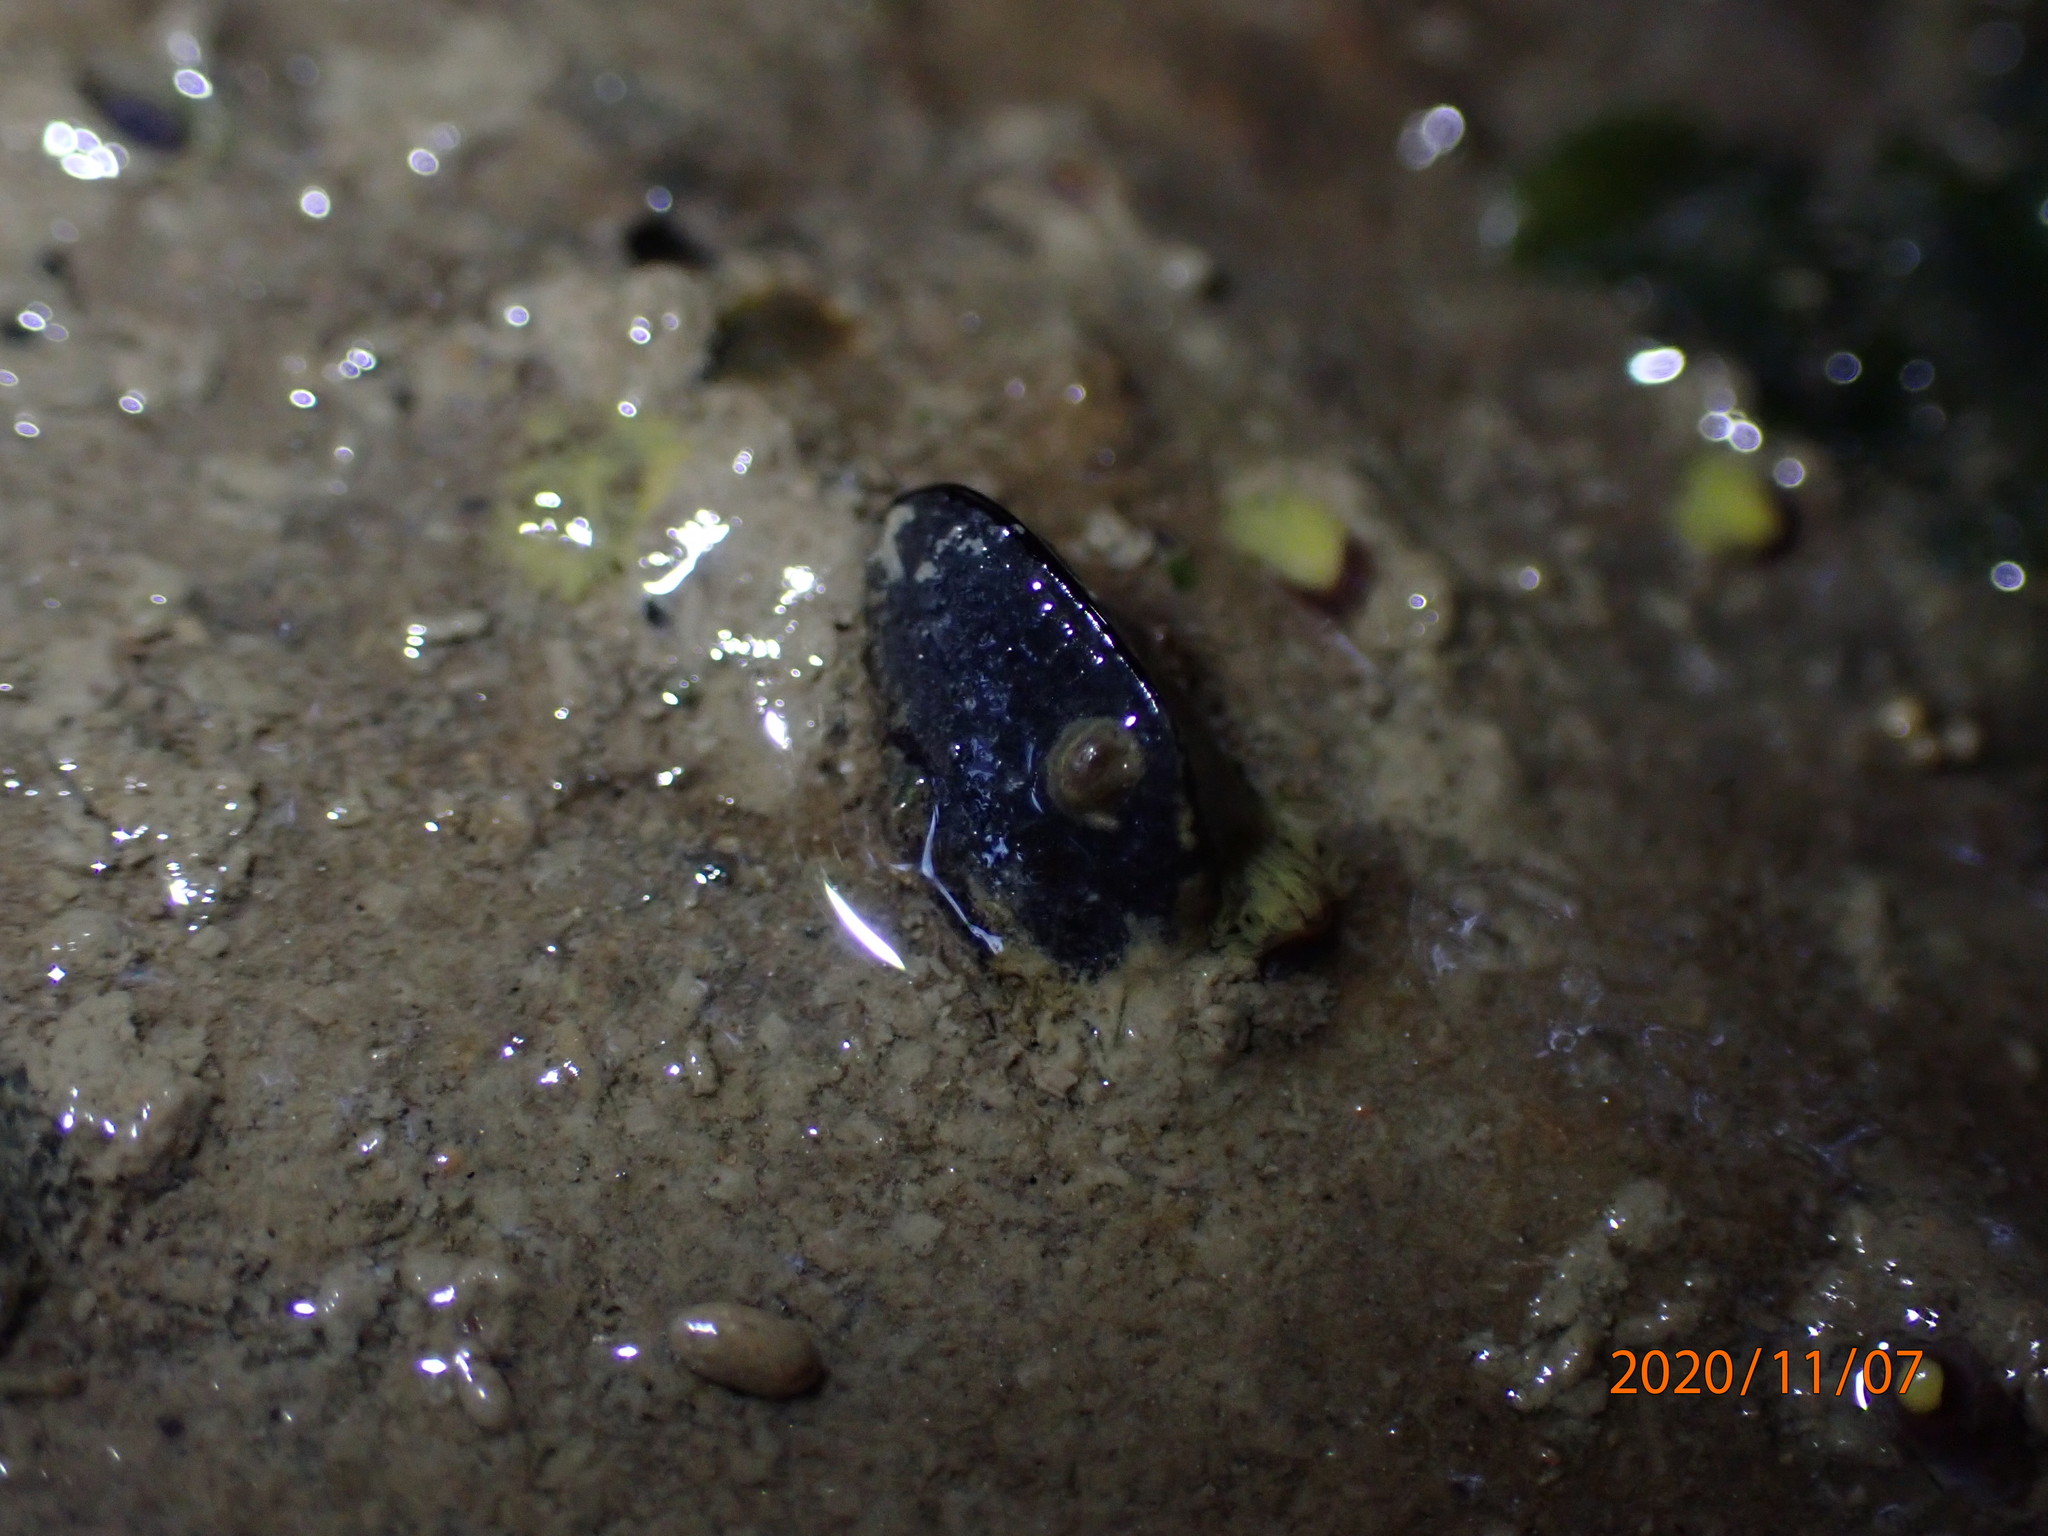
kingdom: Animalia
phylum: Mollusca
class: Bivalvia
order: Mytilida
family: Mytilidae
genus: Xenostrobus
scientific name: Xenostrobus neozelanicus
